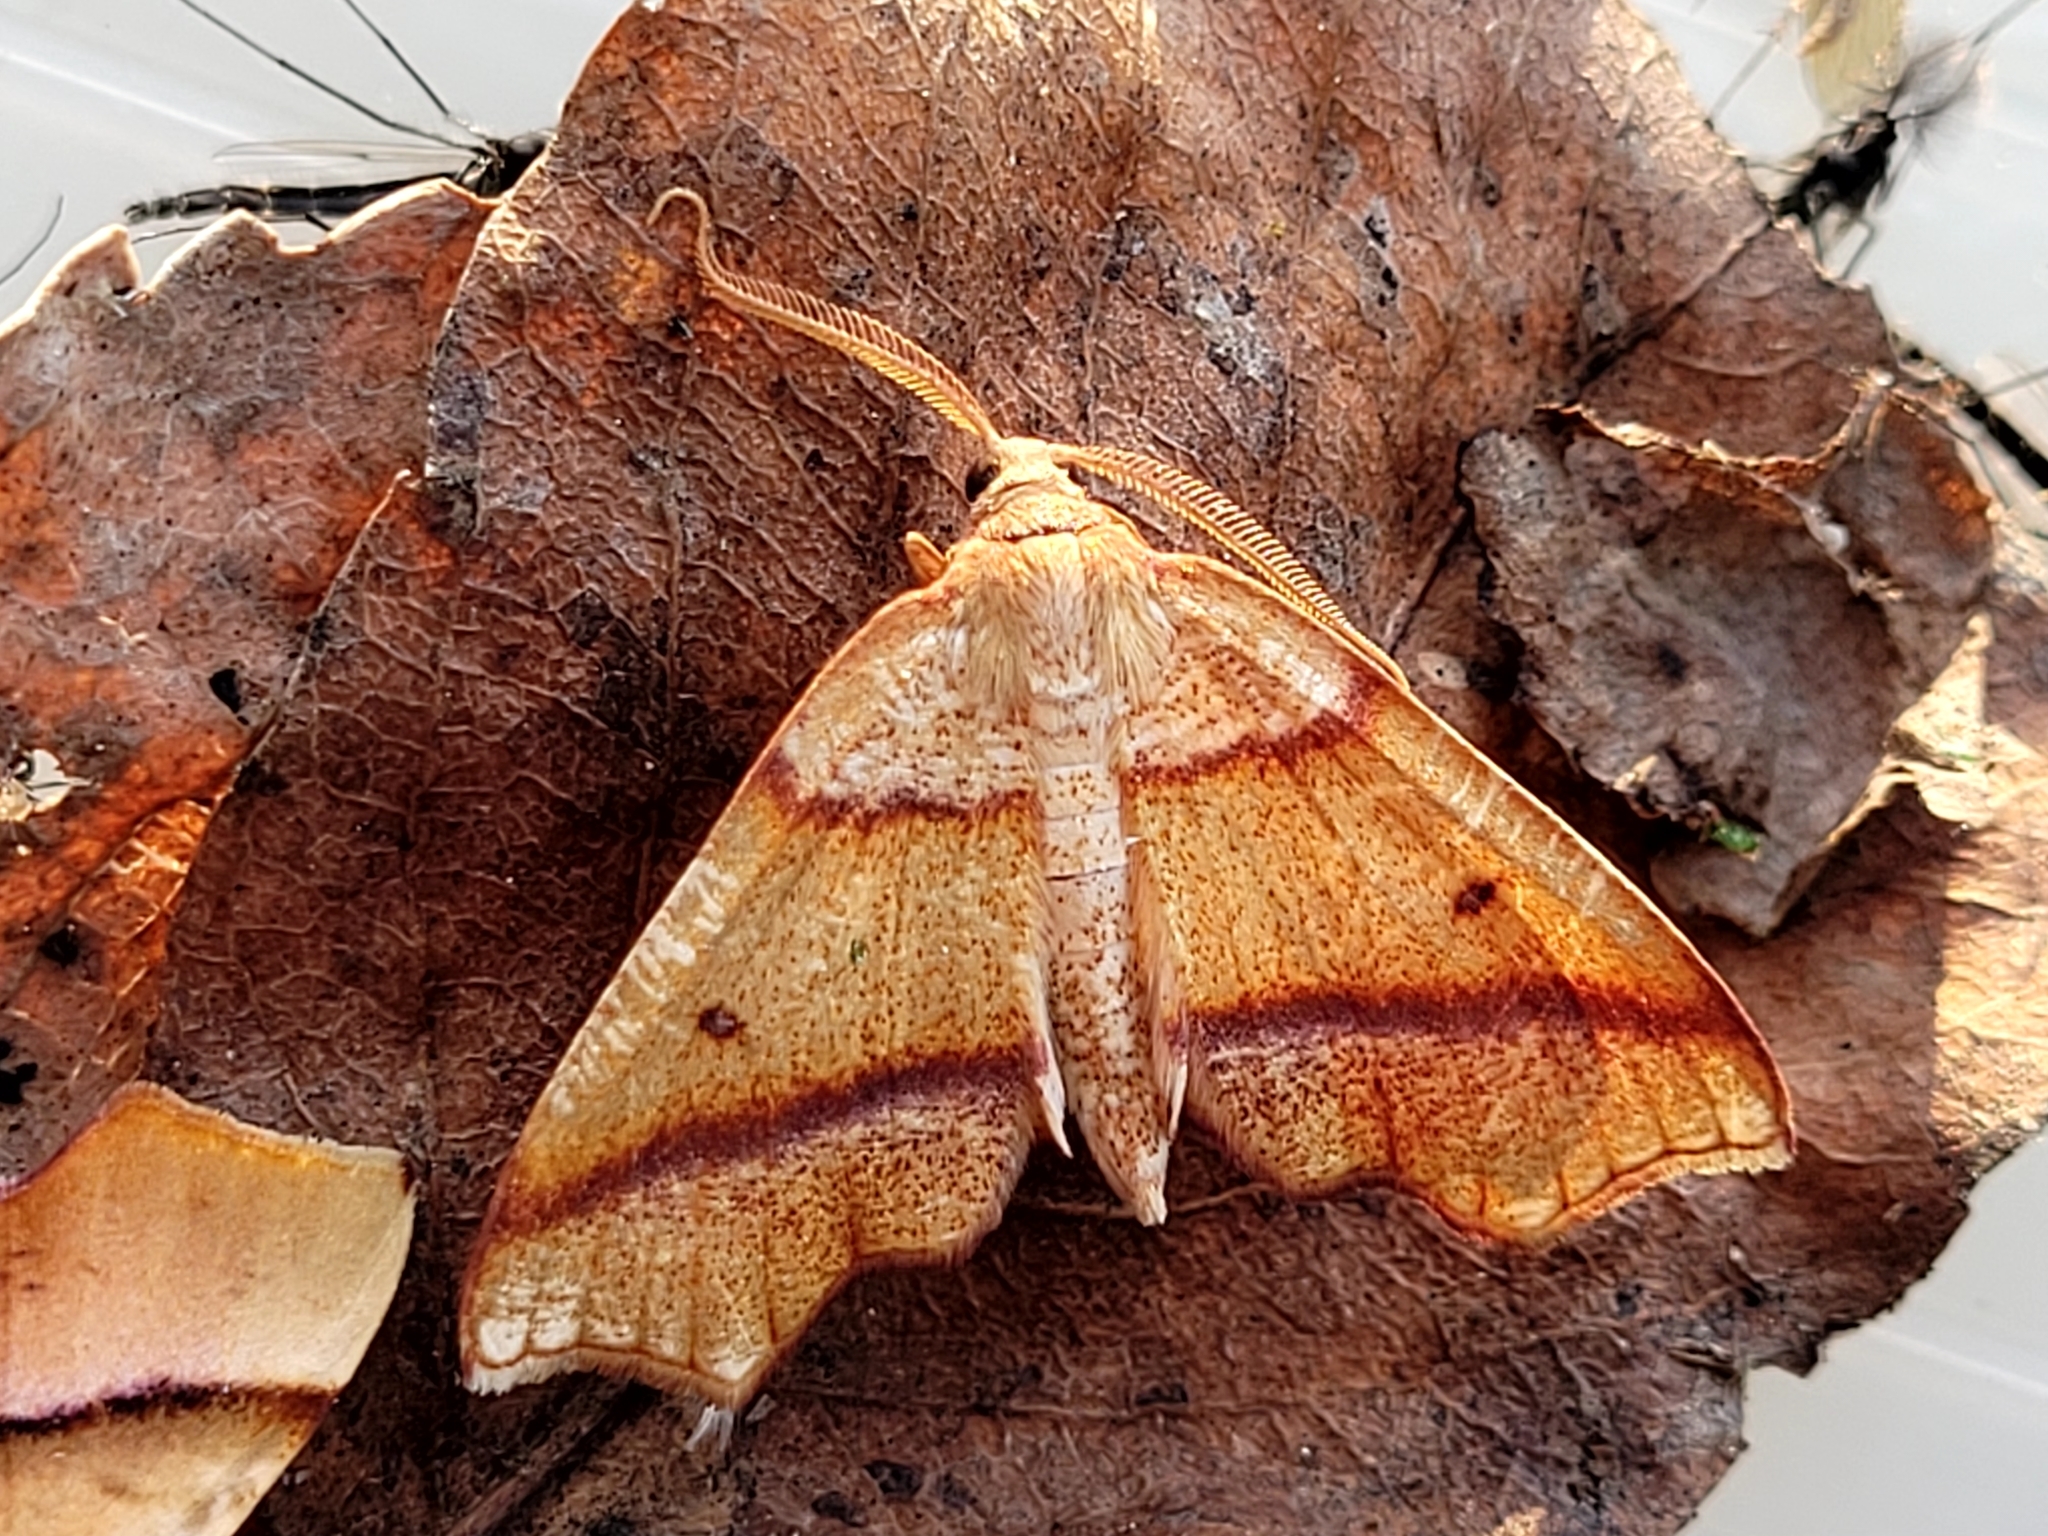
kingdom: Animalia
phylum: Arthropoda
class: Insecta
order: Lepidoptera
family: Geometridae
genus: Plagodis
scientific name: Plagodis alcoolaria
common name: Hollow-spotted plagodis
